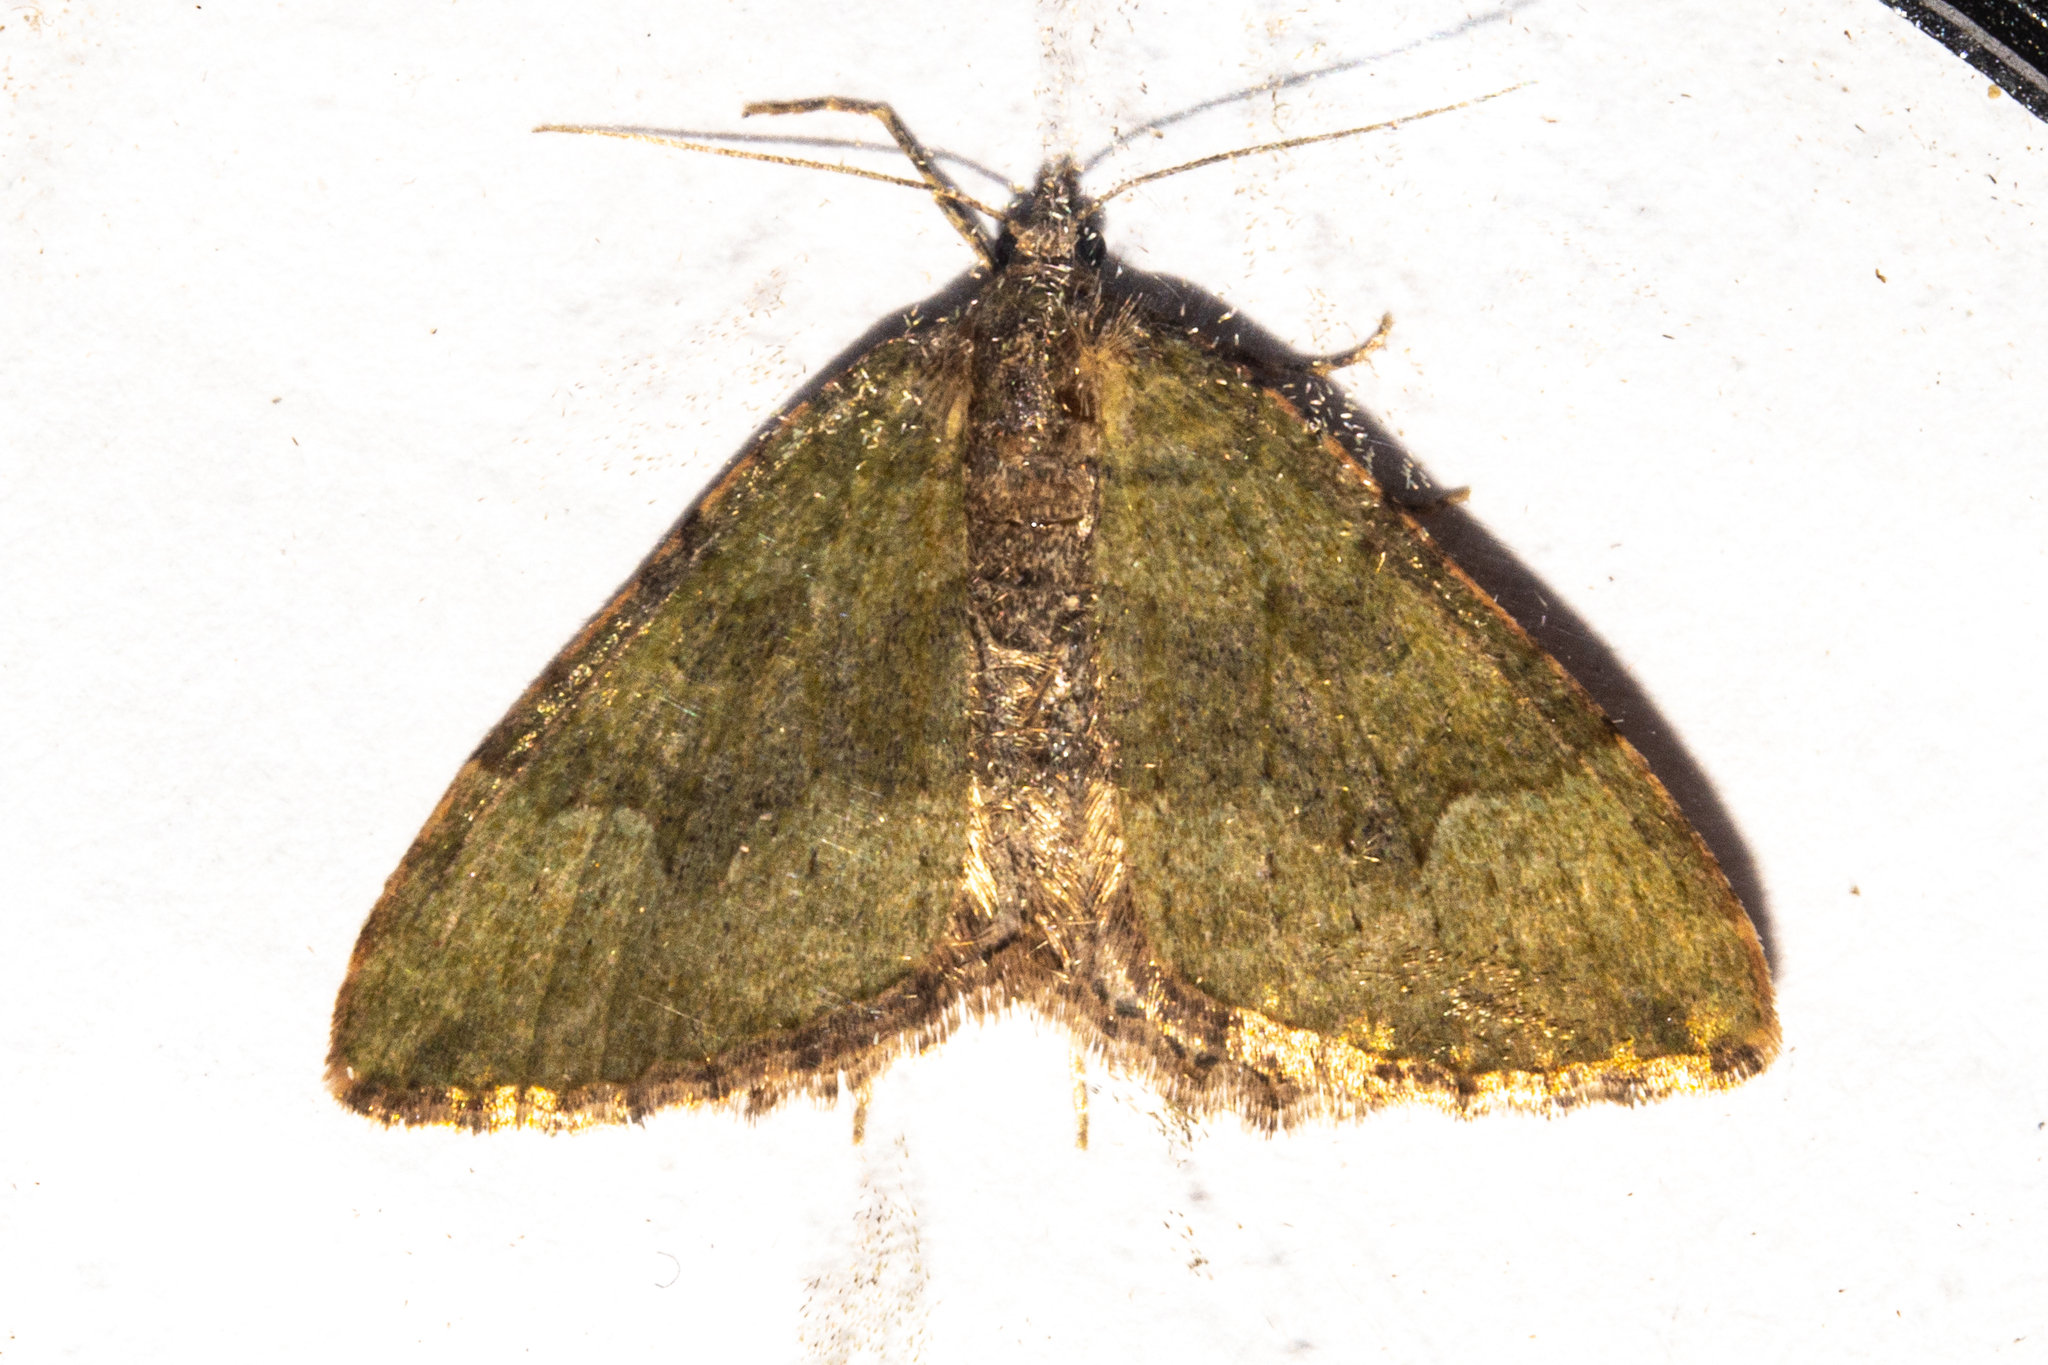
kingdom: Animalia
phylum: Arthropoda
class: Insecta
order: Lepidoptera
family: Geometridae
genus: Epyaxa
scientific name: Epyaxa rosearia
